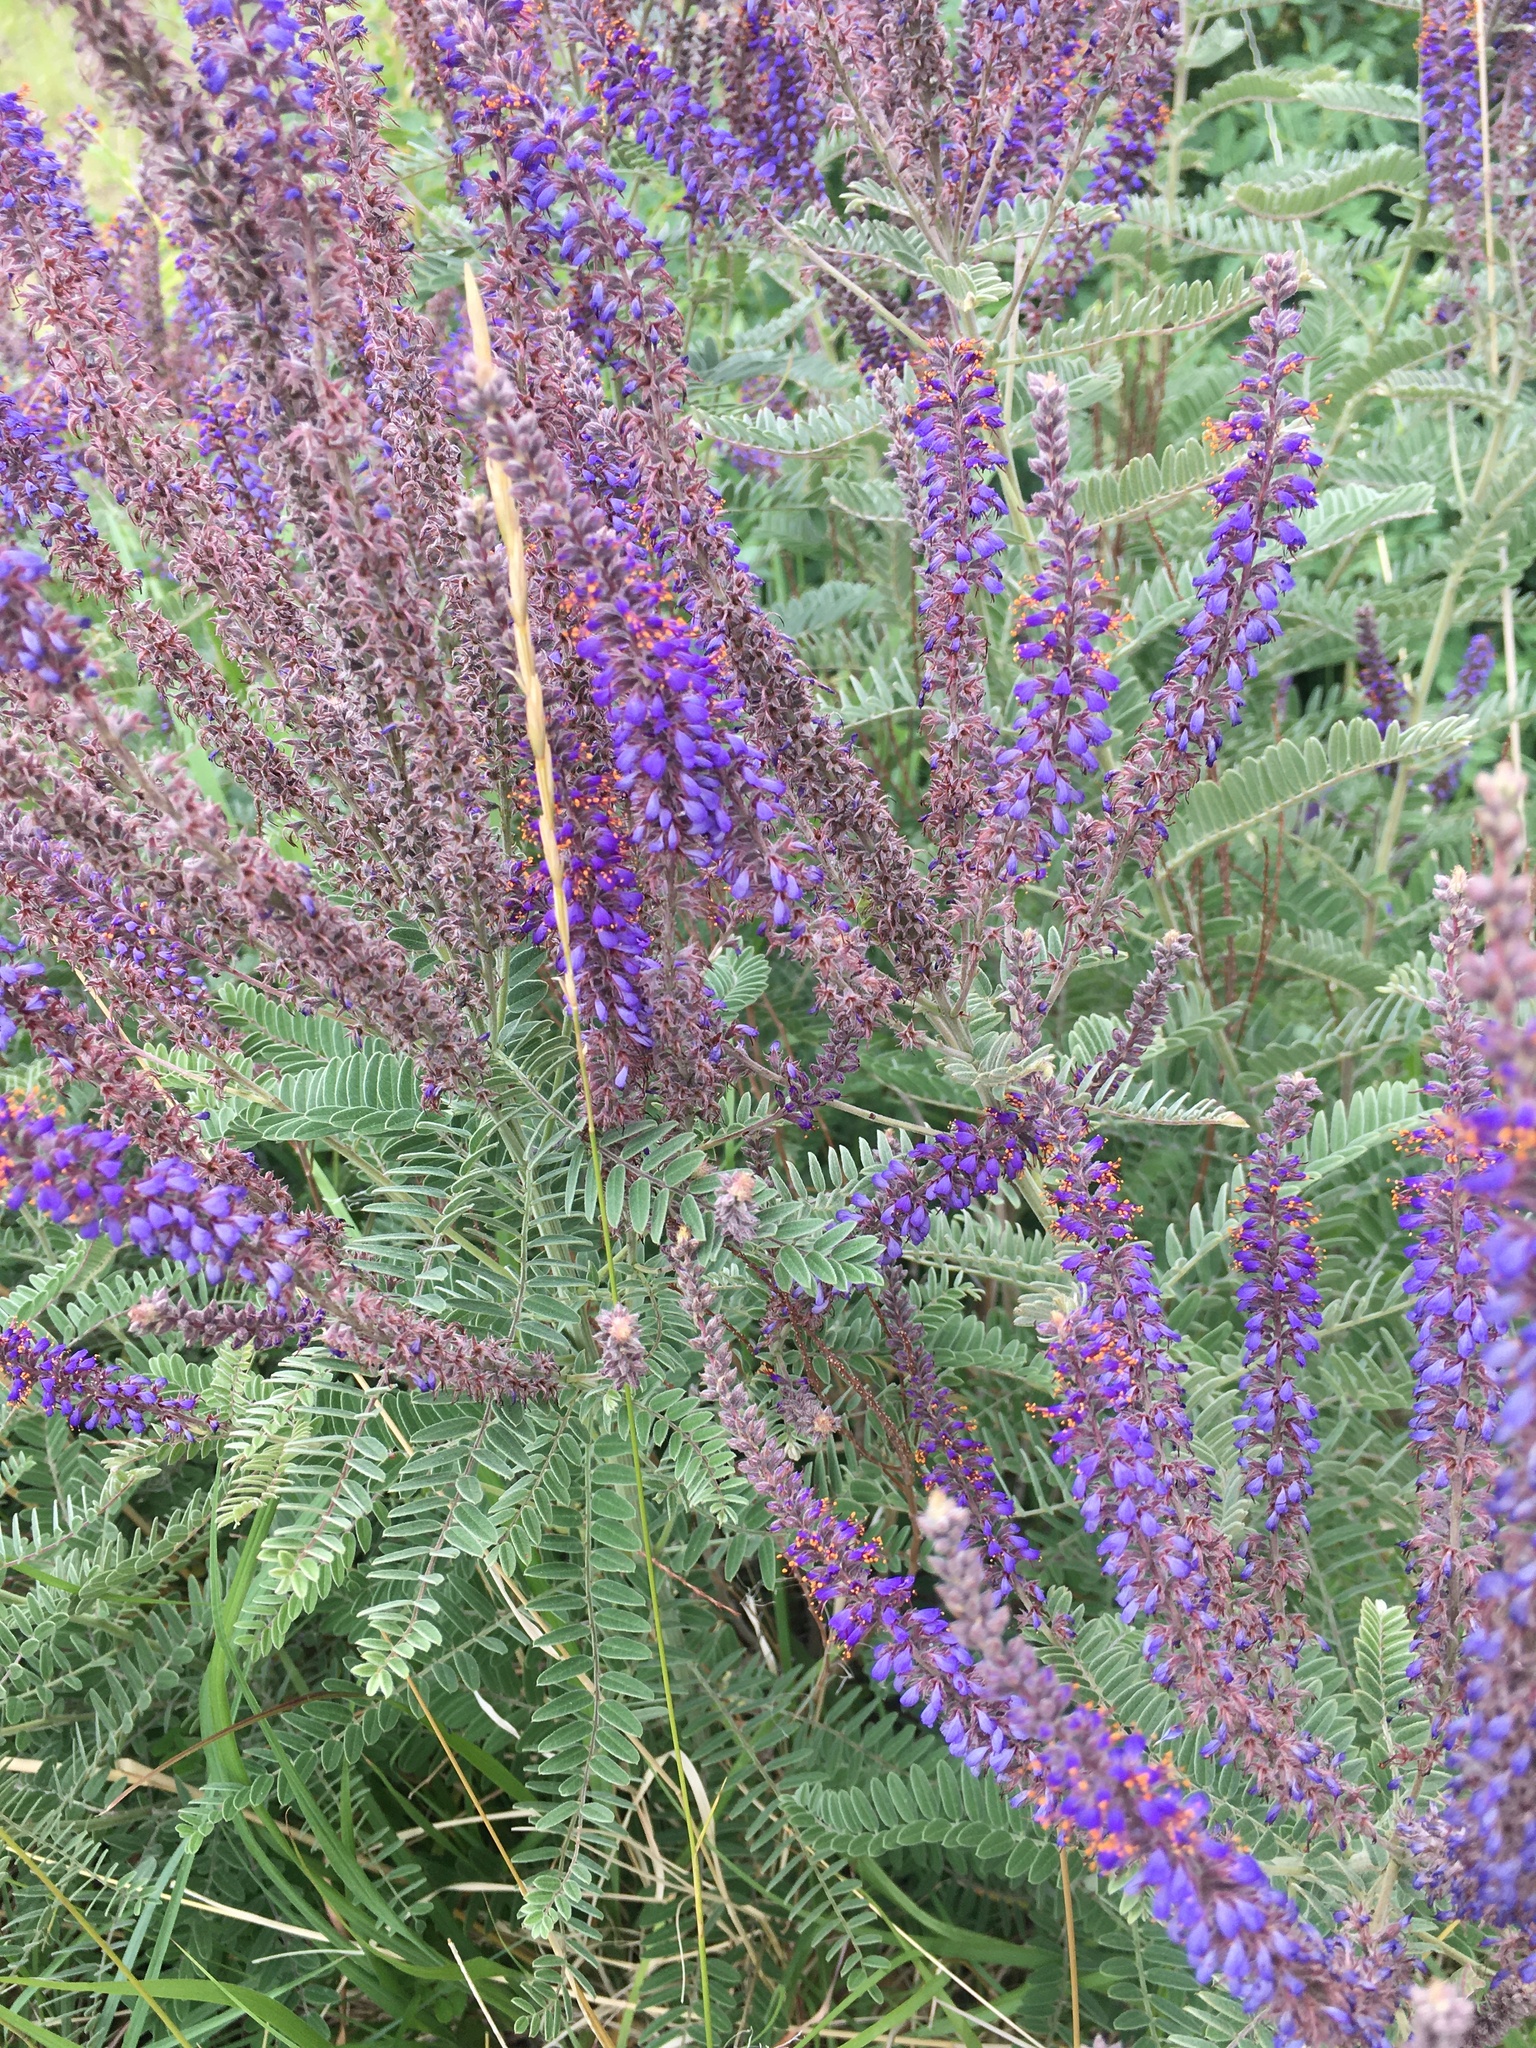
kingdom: Plantae
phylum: Tracheophyta
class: Magnoliopsida
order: Fabales
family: Fabaceae
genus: Amorpha
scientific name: Amorpha canescens
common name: Leadplant
